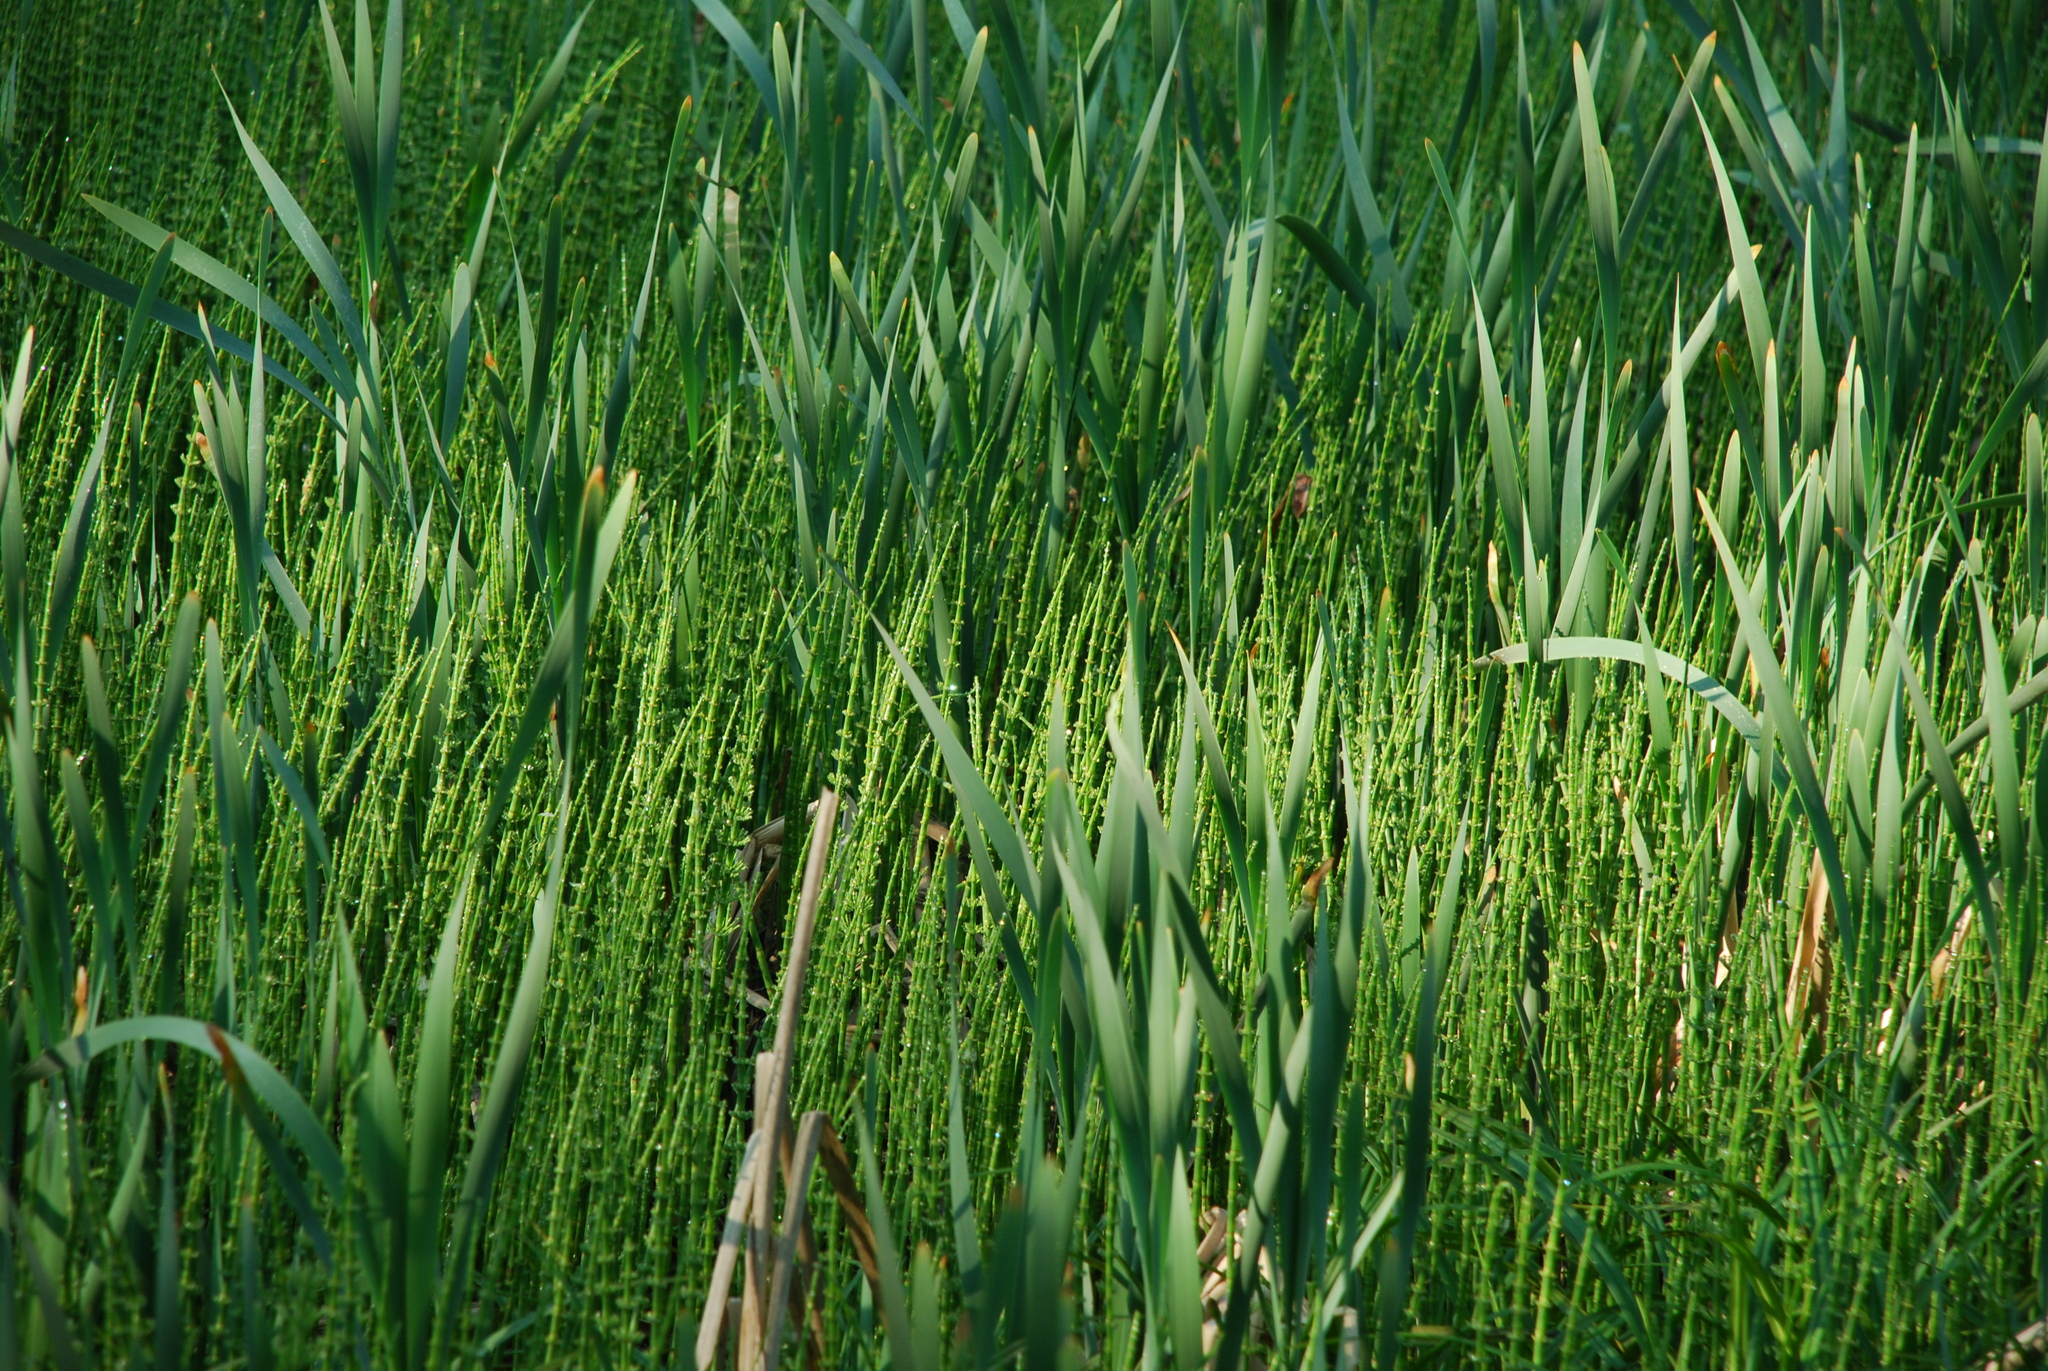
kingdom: Plantae
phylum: Tracheophyta
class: Polypodiopsida
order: Equisetales
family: Equisetaceae
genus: Equisetum
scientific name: Equisetum fluviatile
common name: Water horsetail
